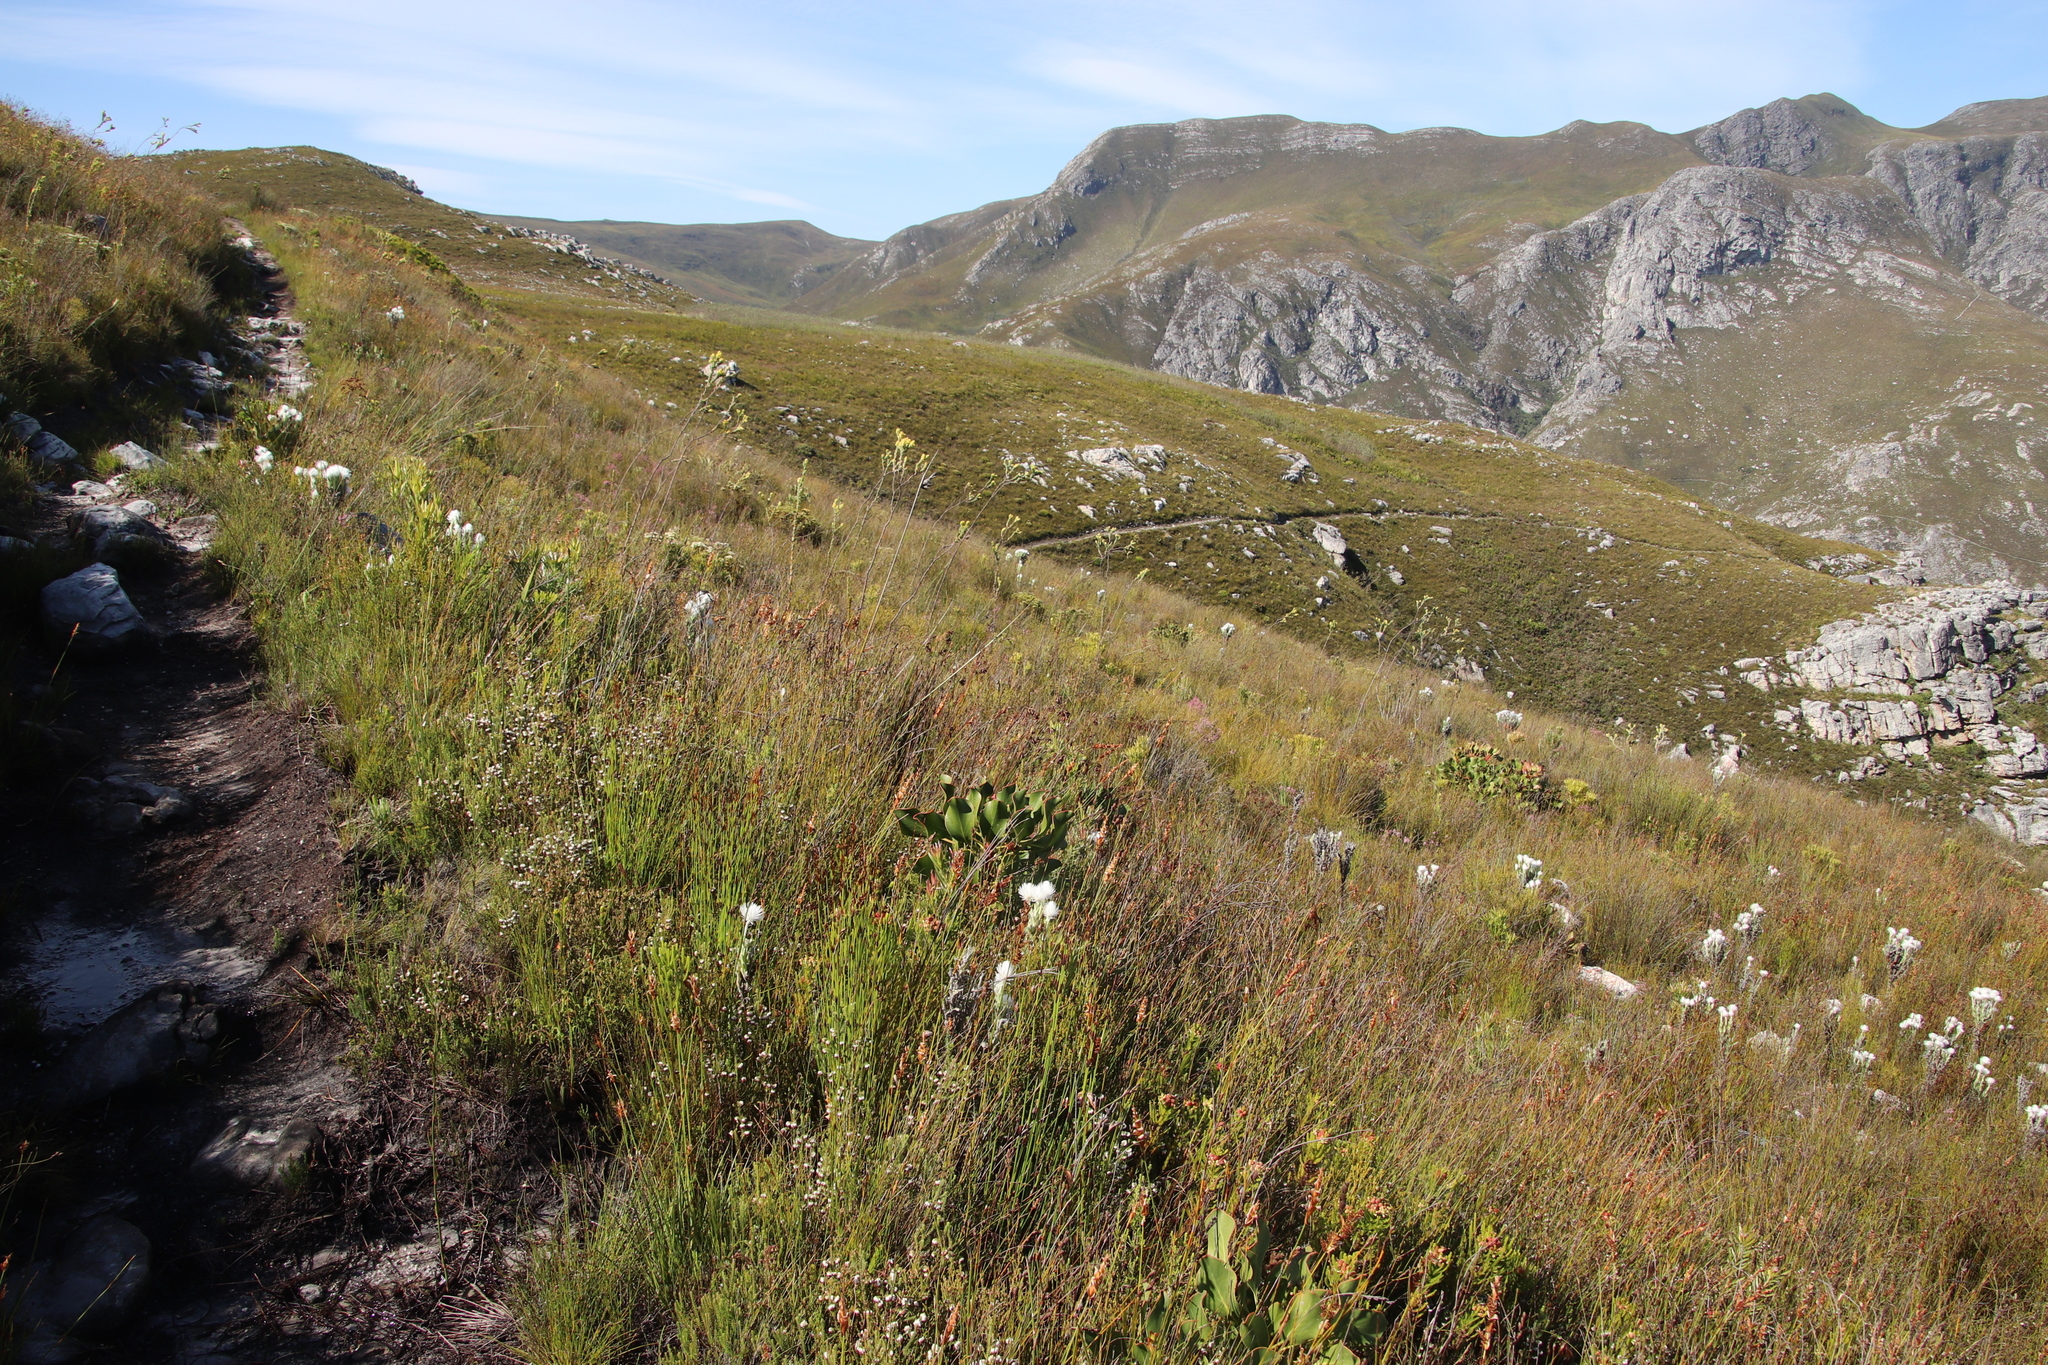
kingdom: Plantae
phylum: Tracheophyta
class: Magnoliopsida
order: Santalales
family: Thesiaceae
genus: Thesium
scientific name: Thesium euphorbioides
